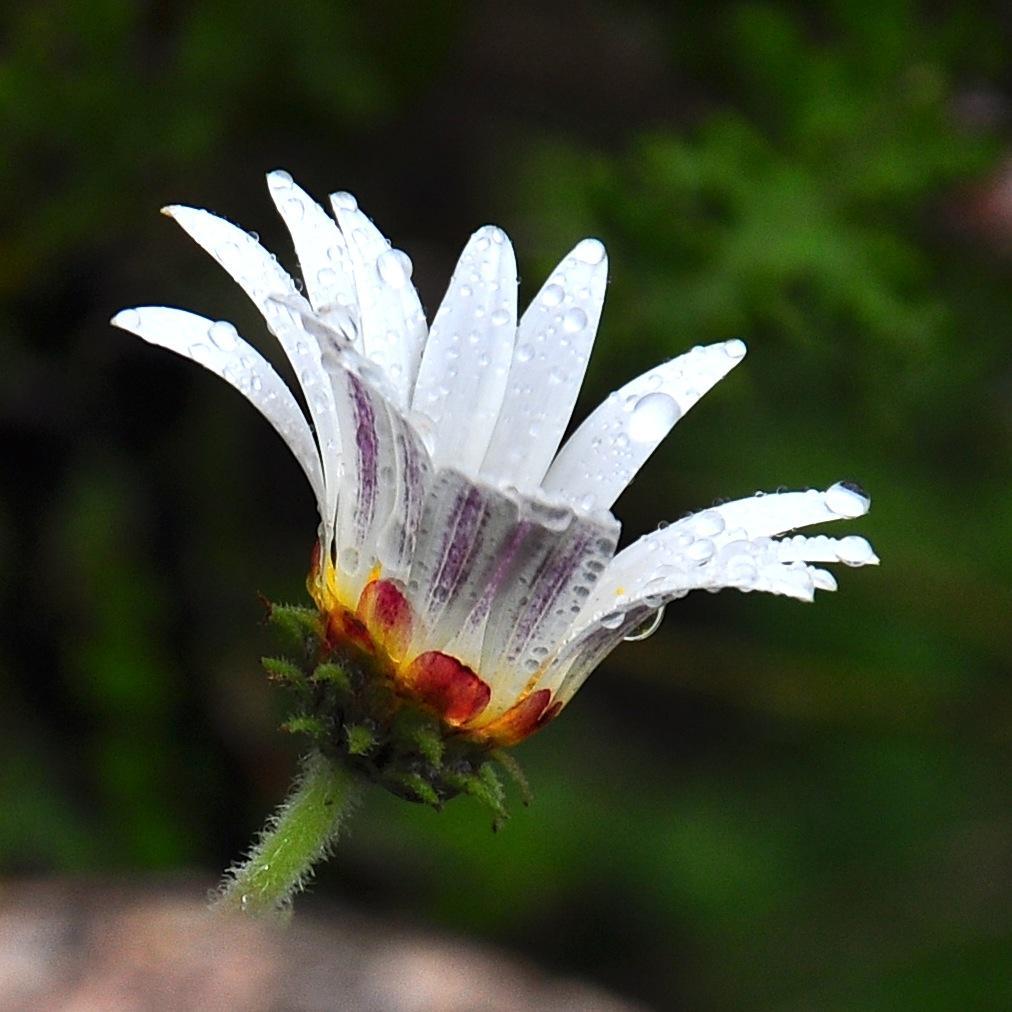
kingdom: Plantae
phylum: Tracheophyta
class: Magnoliopsida
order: Asterales
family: Asteraceae
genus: Arctotis
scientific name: Arctotis aspera
